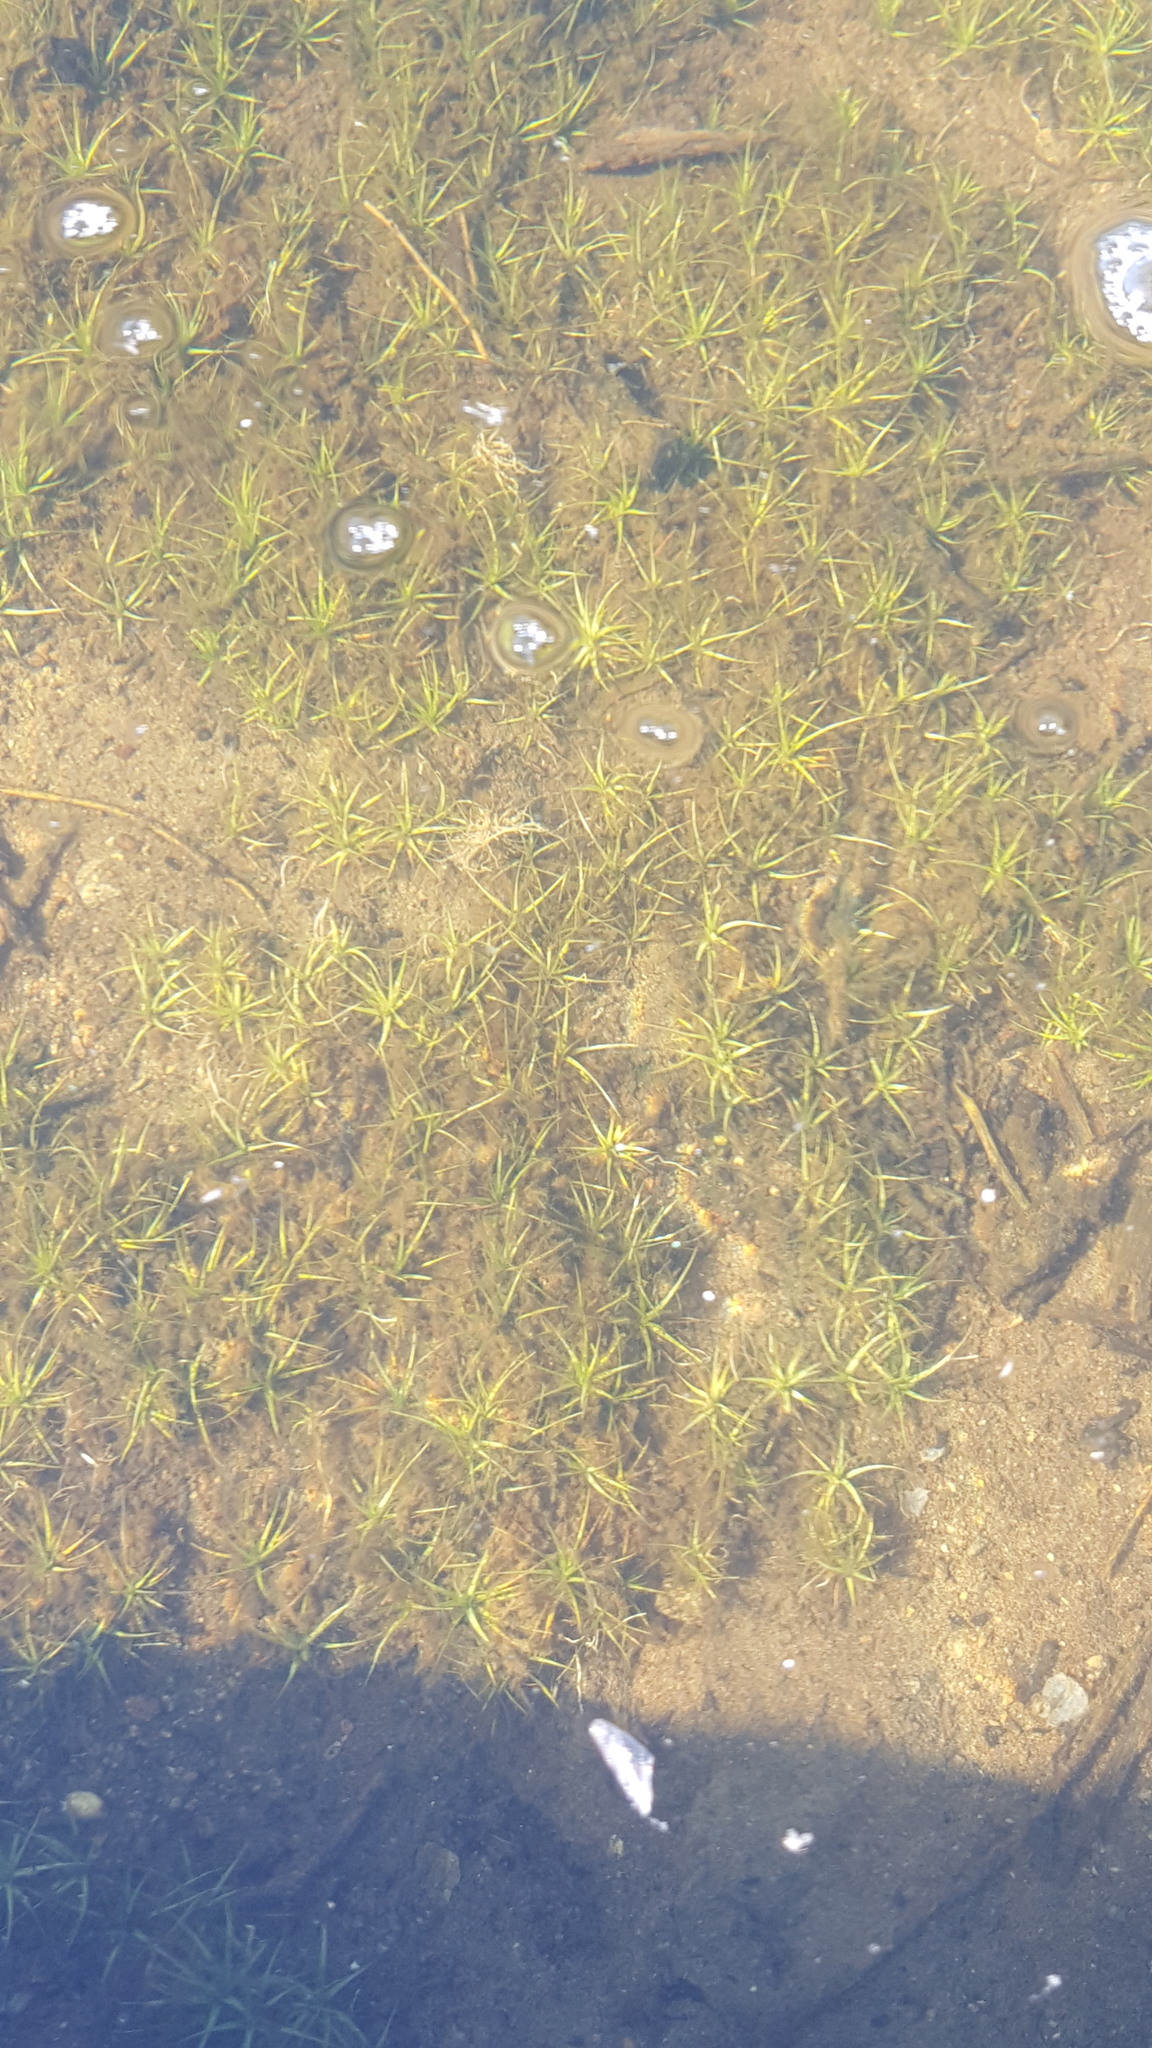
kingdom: Plantae
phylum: Tracheophyta
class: Liliopsida
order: Poales
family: Eriocaulaceae
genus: Eriocaulon
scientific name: Eriocaulon aquaticum
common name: Pipewort
